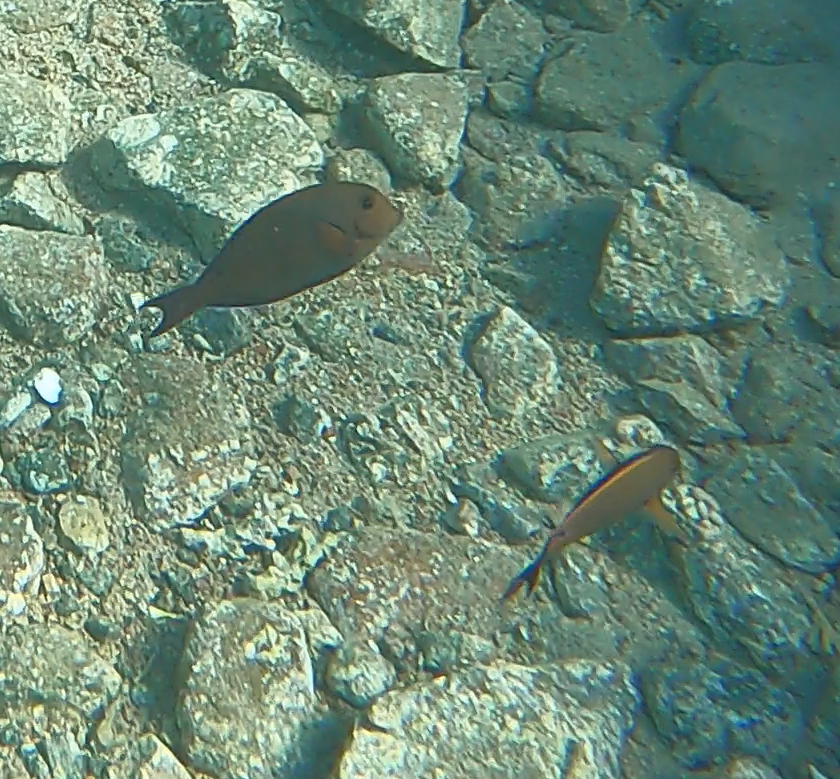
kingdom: Animalia
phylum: Chordata
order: Perciformes
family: Acanthuridae
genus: Acanthurus
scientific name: Acanthurus nigrofuscus
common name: Blackspot surgeonfish
